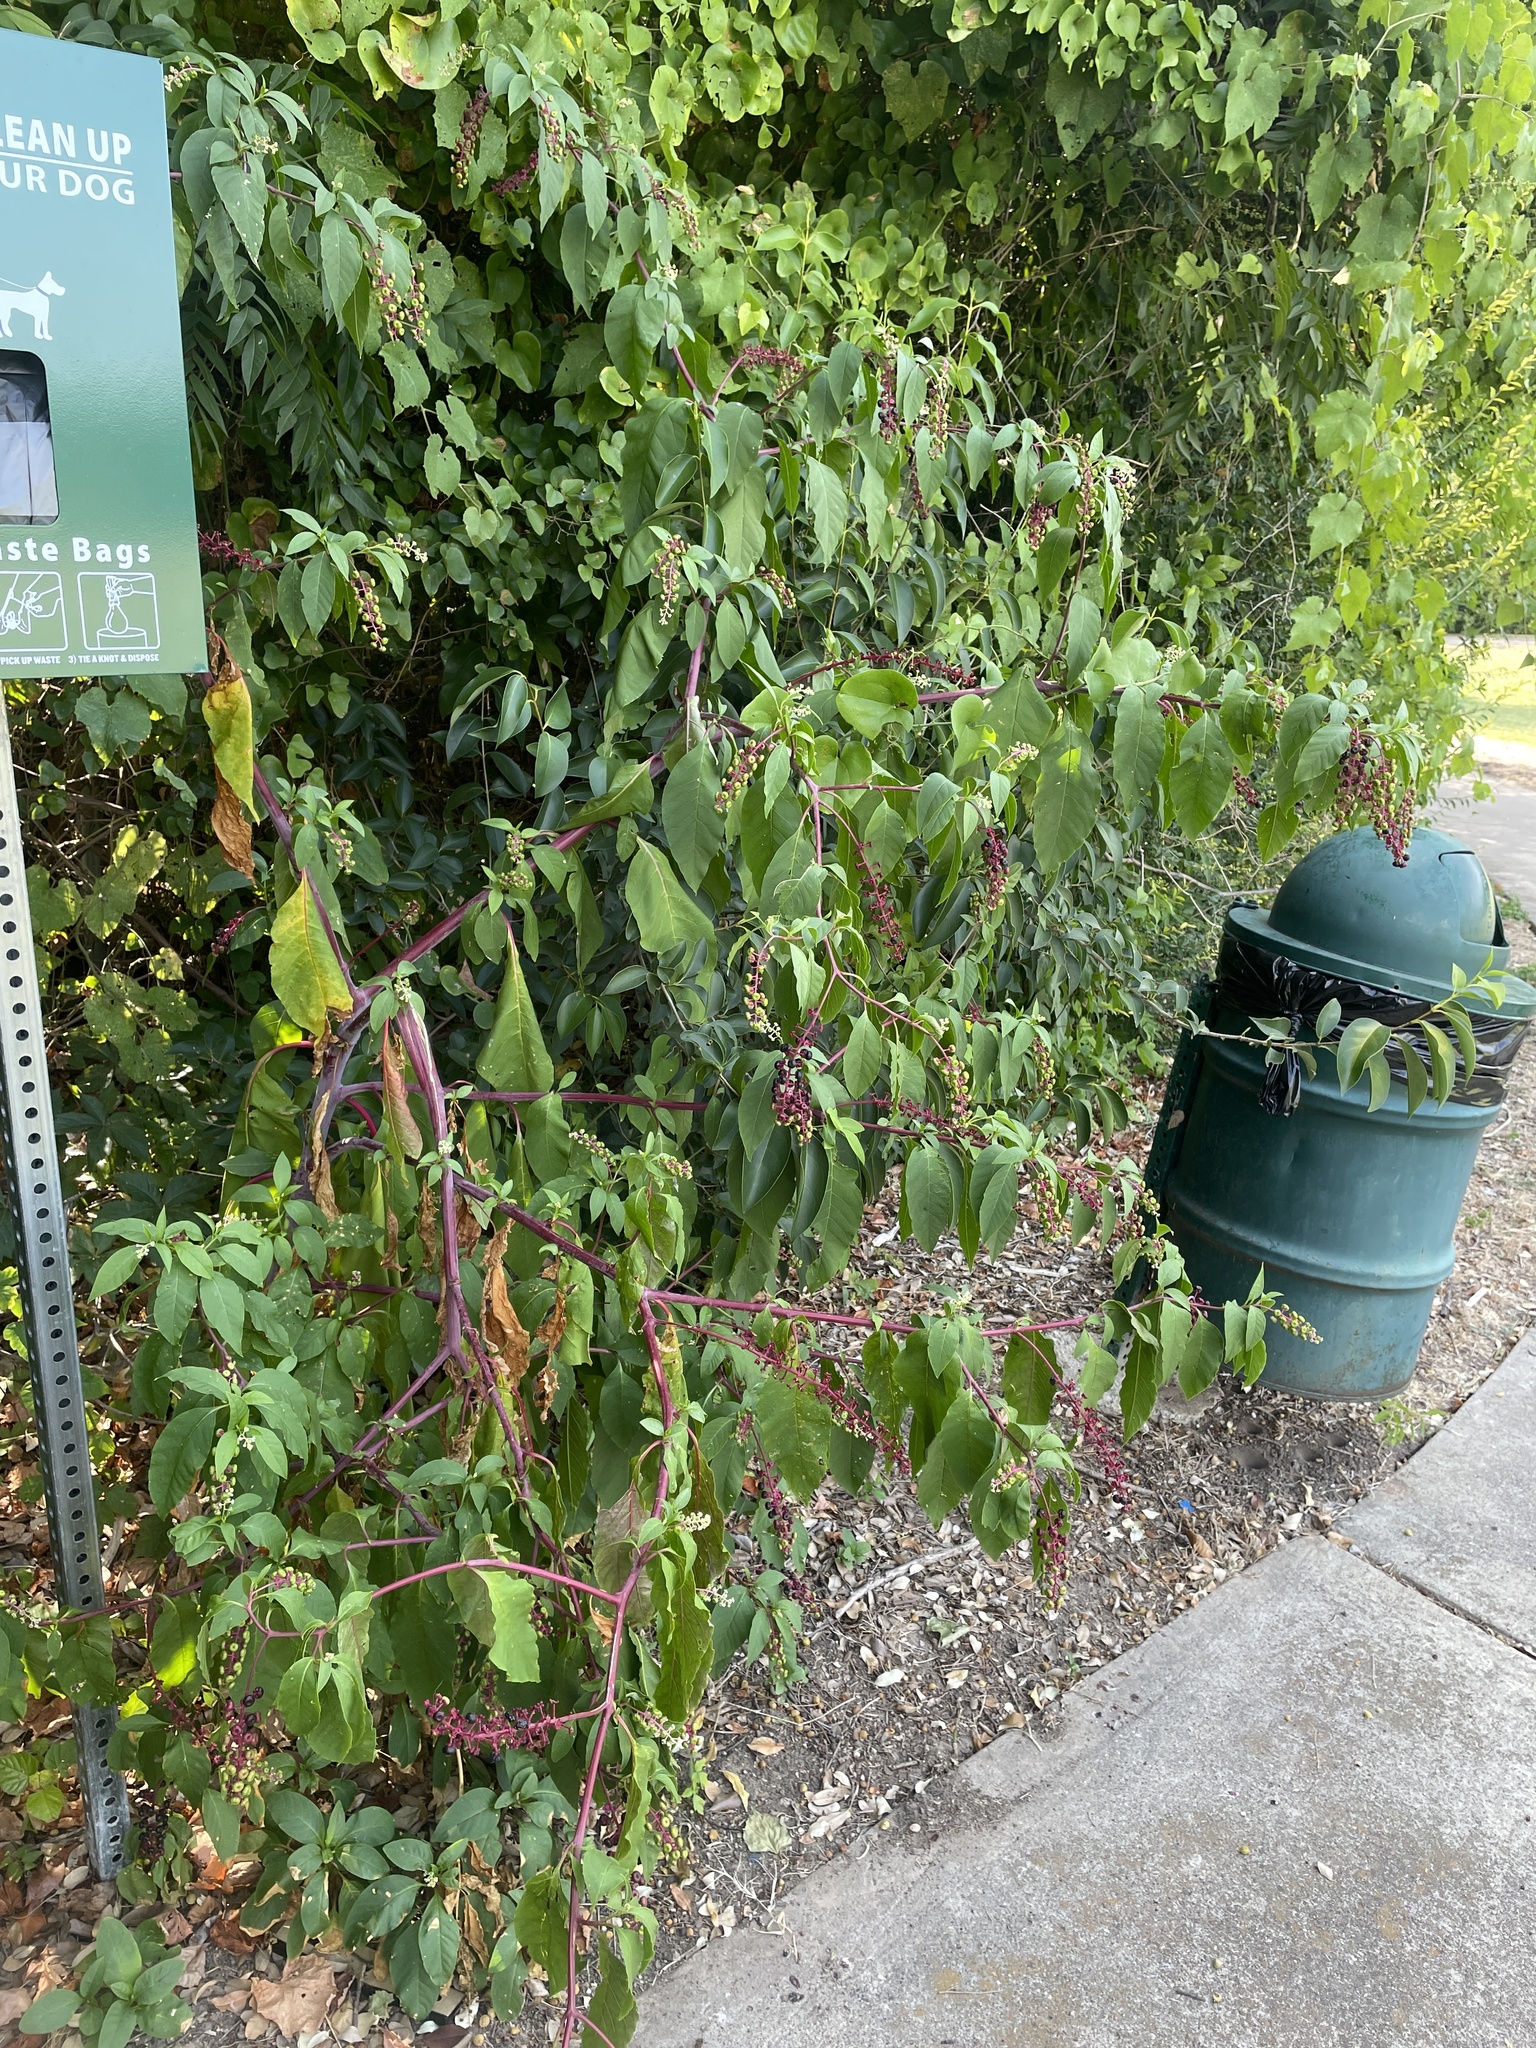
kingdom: Plantae
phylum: Tracheophyta
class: Magnoliopsida
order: Caryophyllales
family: Phytolaccaceae
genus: Phytolacca
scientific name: Phytolacca americana
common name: American pokeweed
